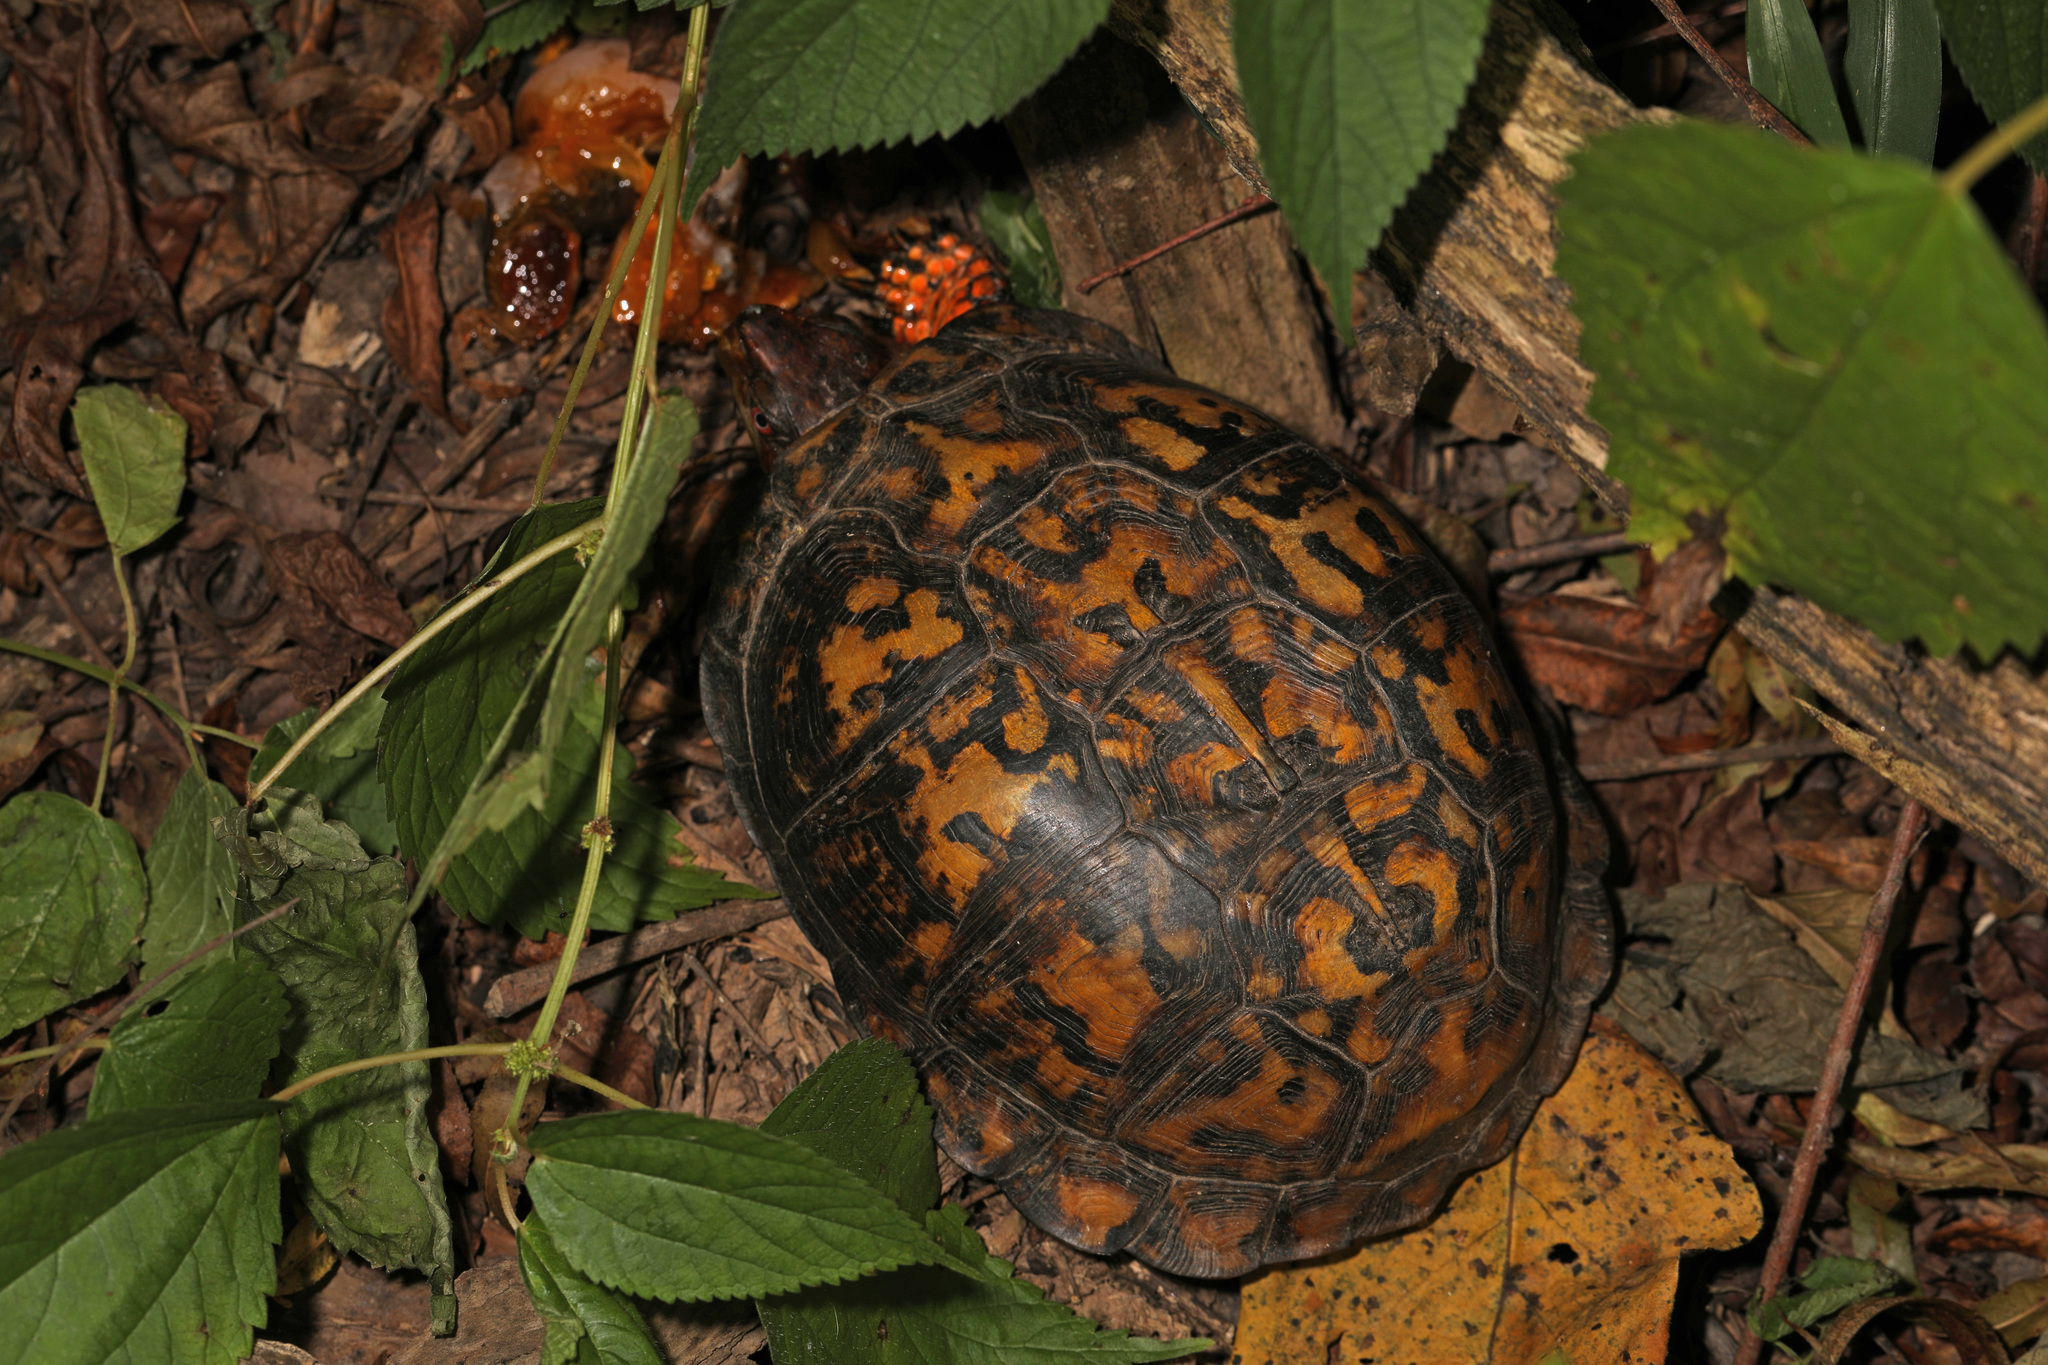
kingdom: Animalia
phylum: Chordata
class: Testudines
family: Emydidae
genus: Terrapene
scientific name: Terrapene carolina
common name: Common box turtle
